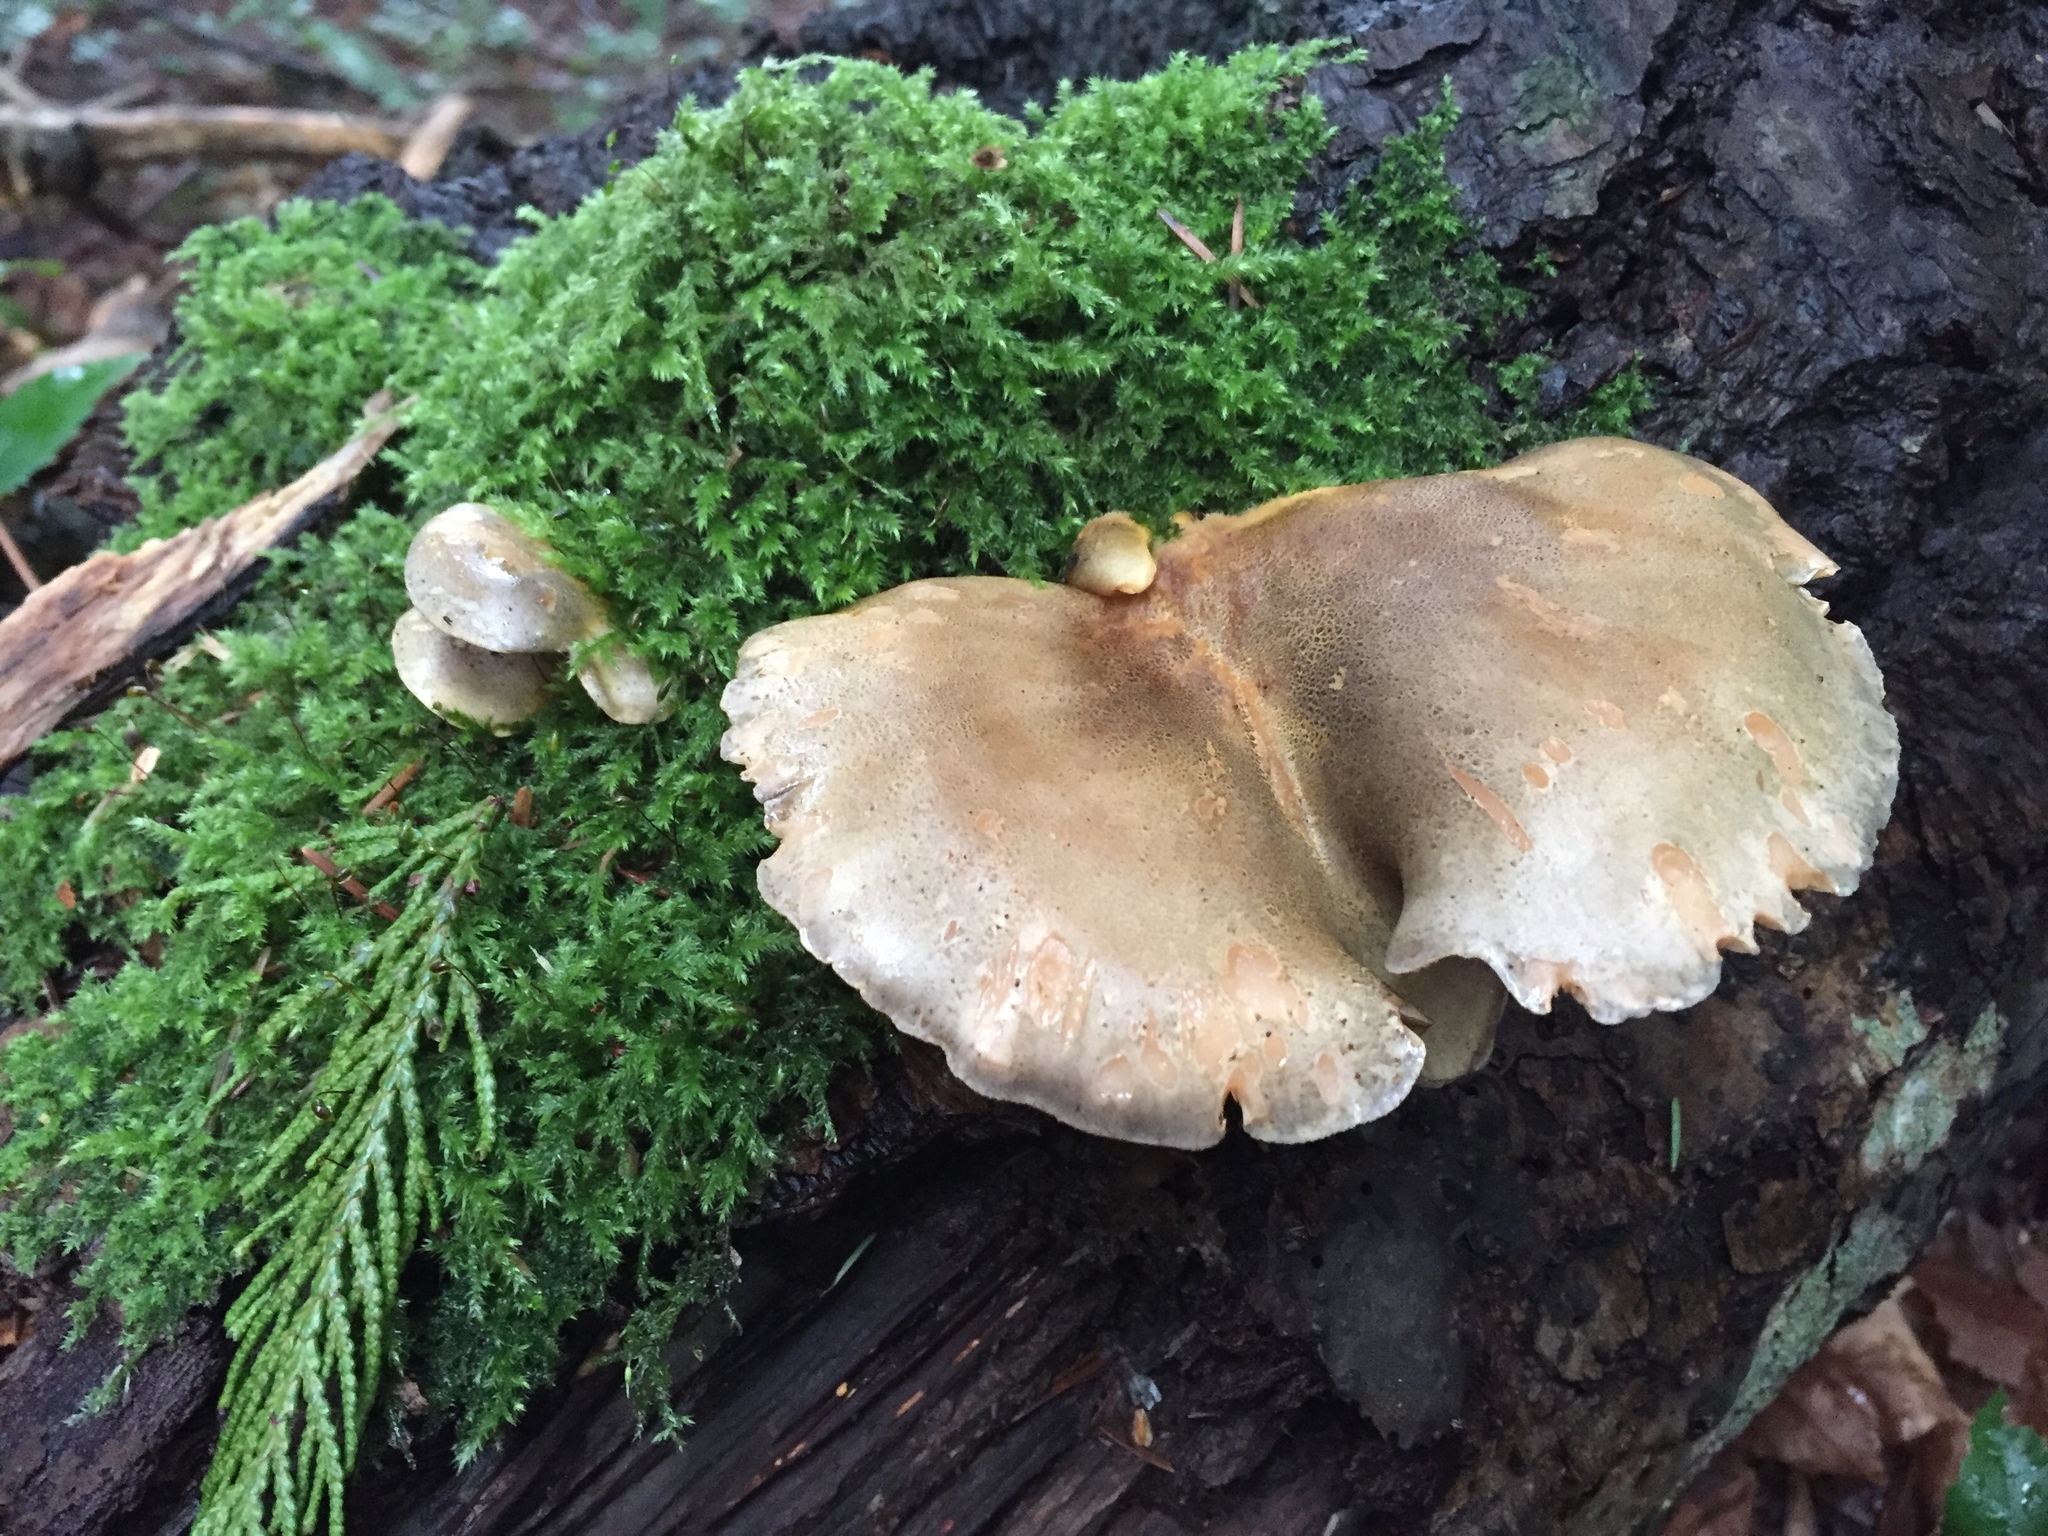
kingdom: Fungi
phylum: Basidiomycota
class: Agaricomycetes
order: Agaricales
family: Sarcomyxaceae
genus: Sarcomyxa
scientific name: Sarcomyxa serotina
